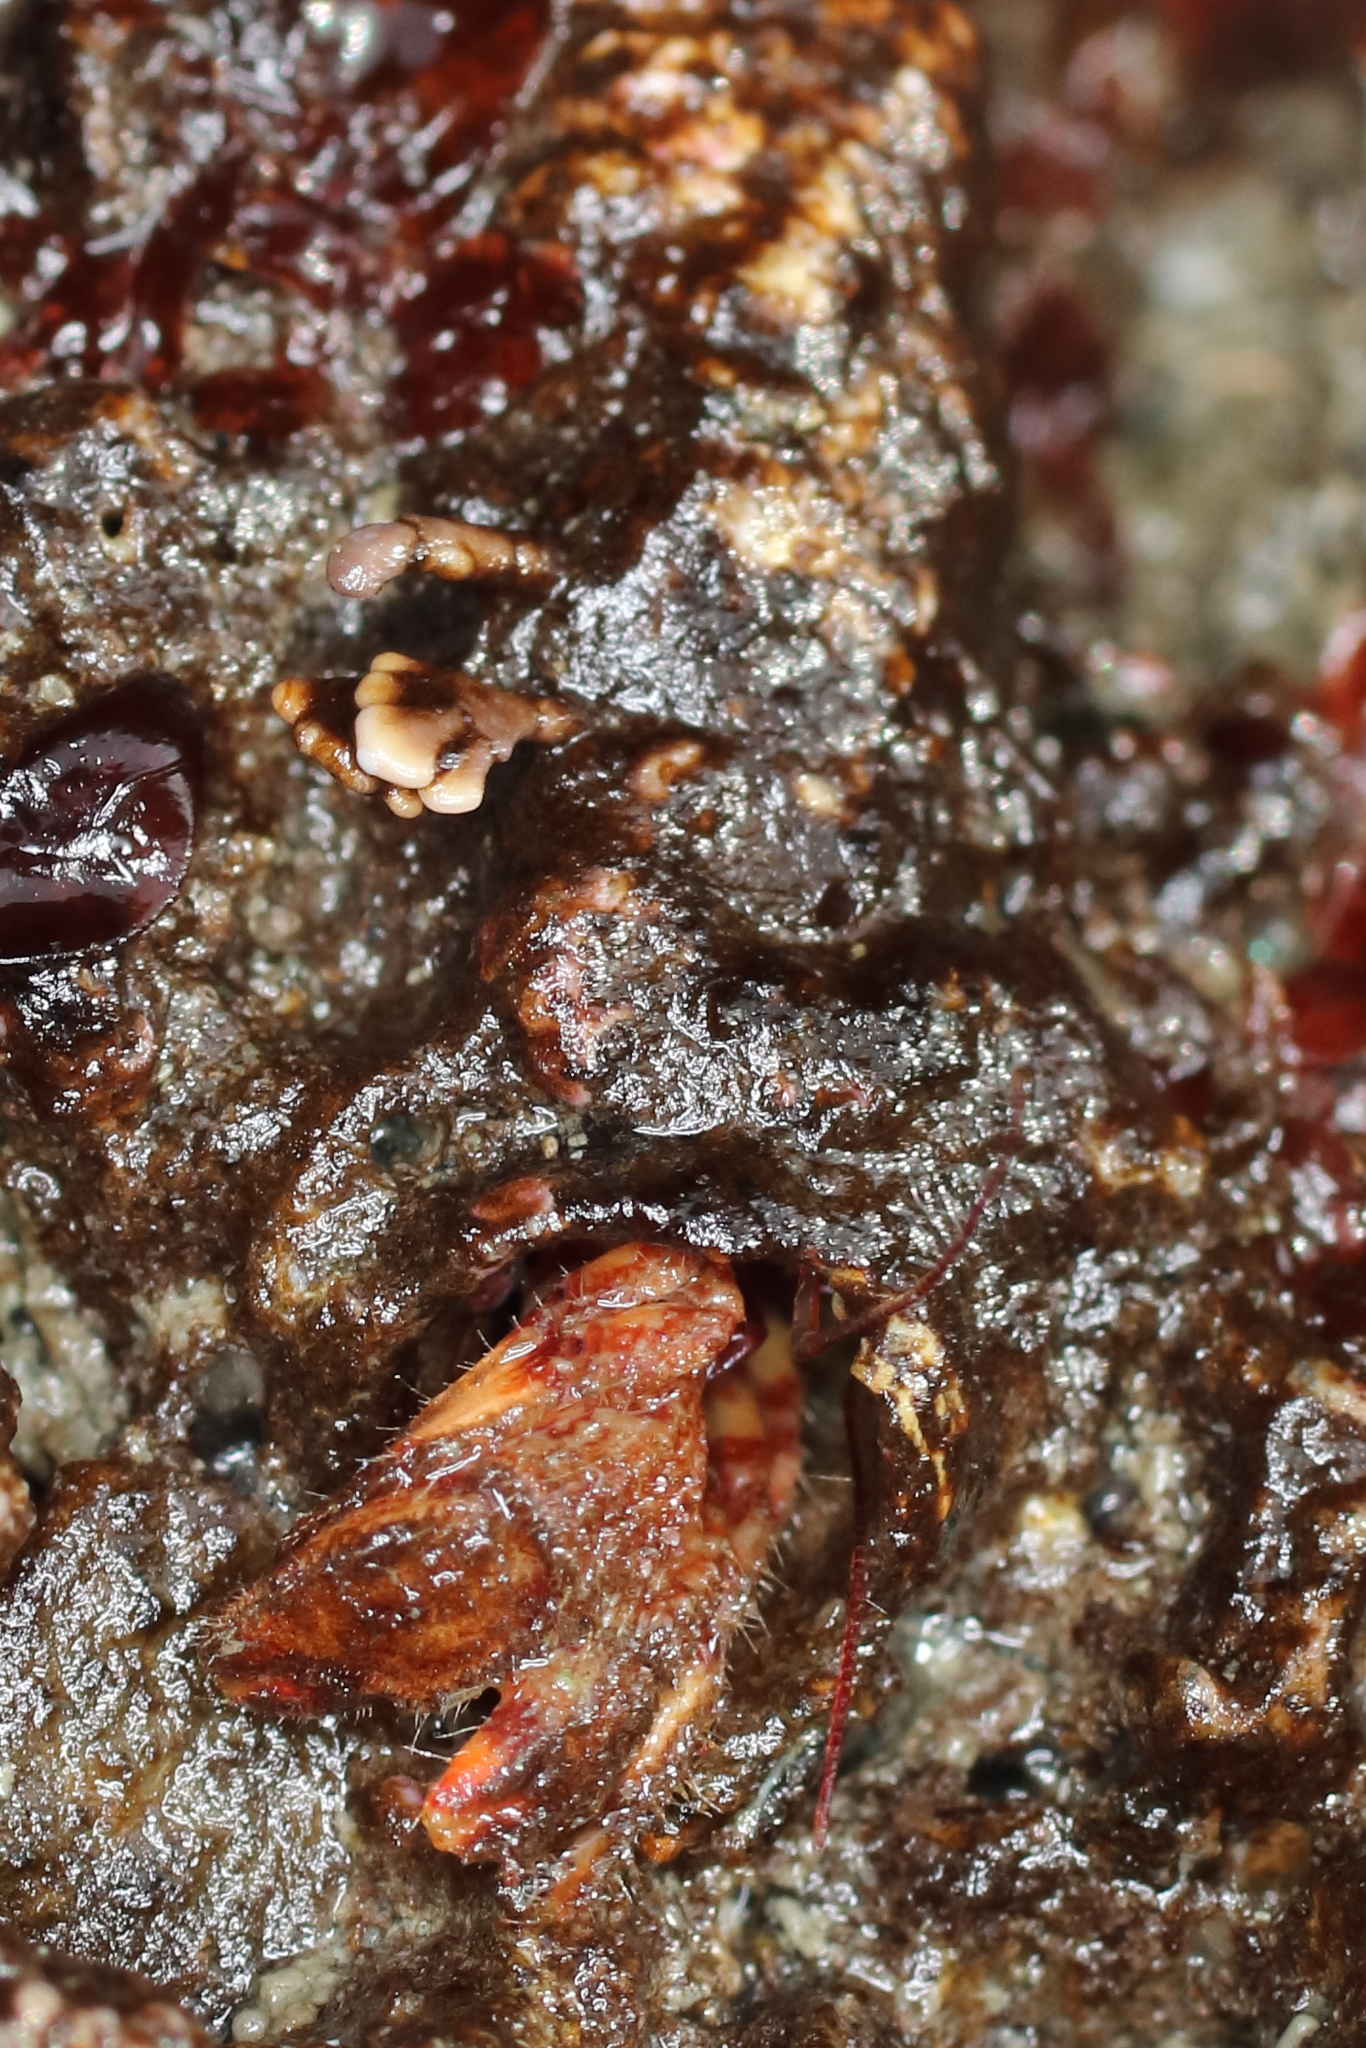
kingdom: Animalia
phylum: Arthropoda
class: Malacostraca
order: Decapoda
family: Paguridae
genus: Discorsopagurus
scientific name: Discorsopagurus schmitti
